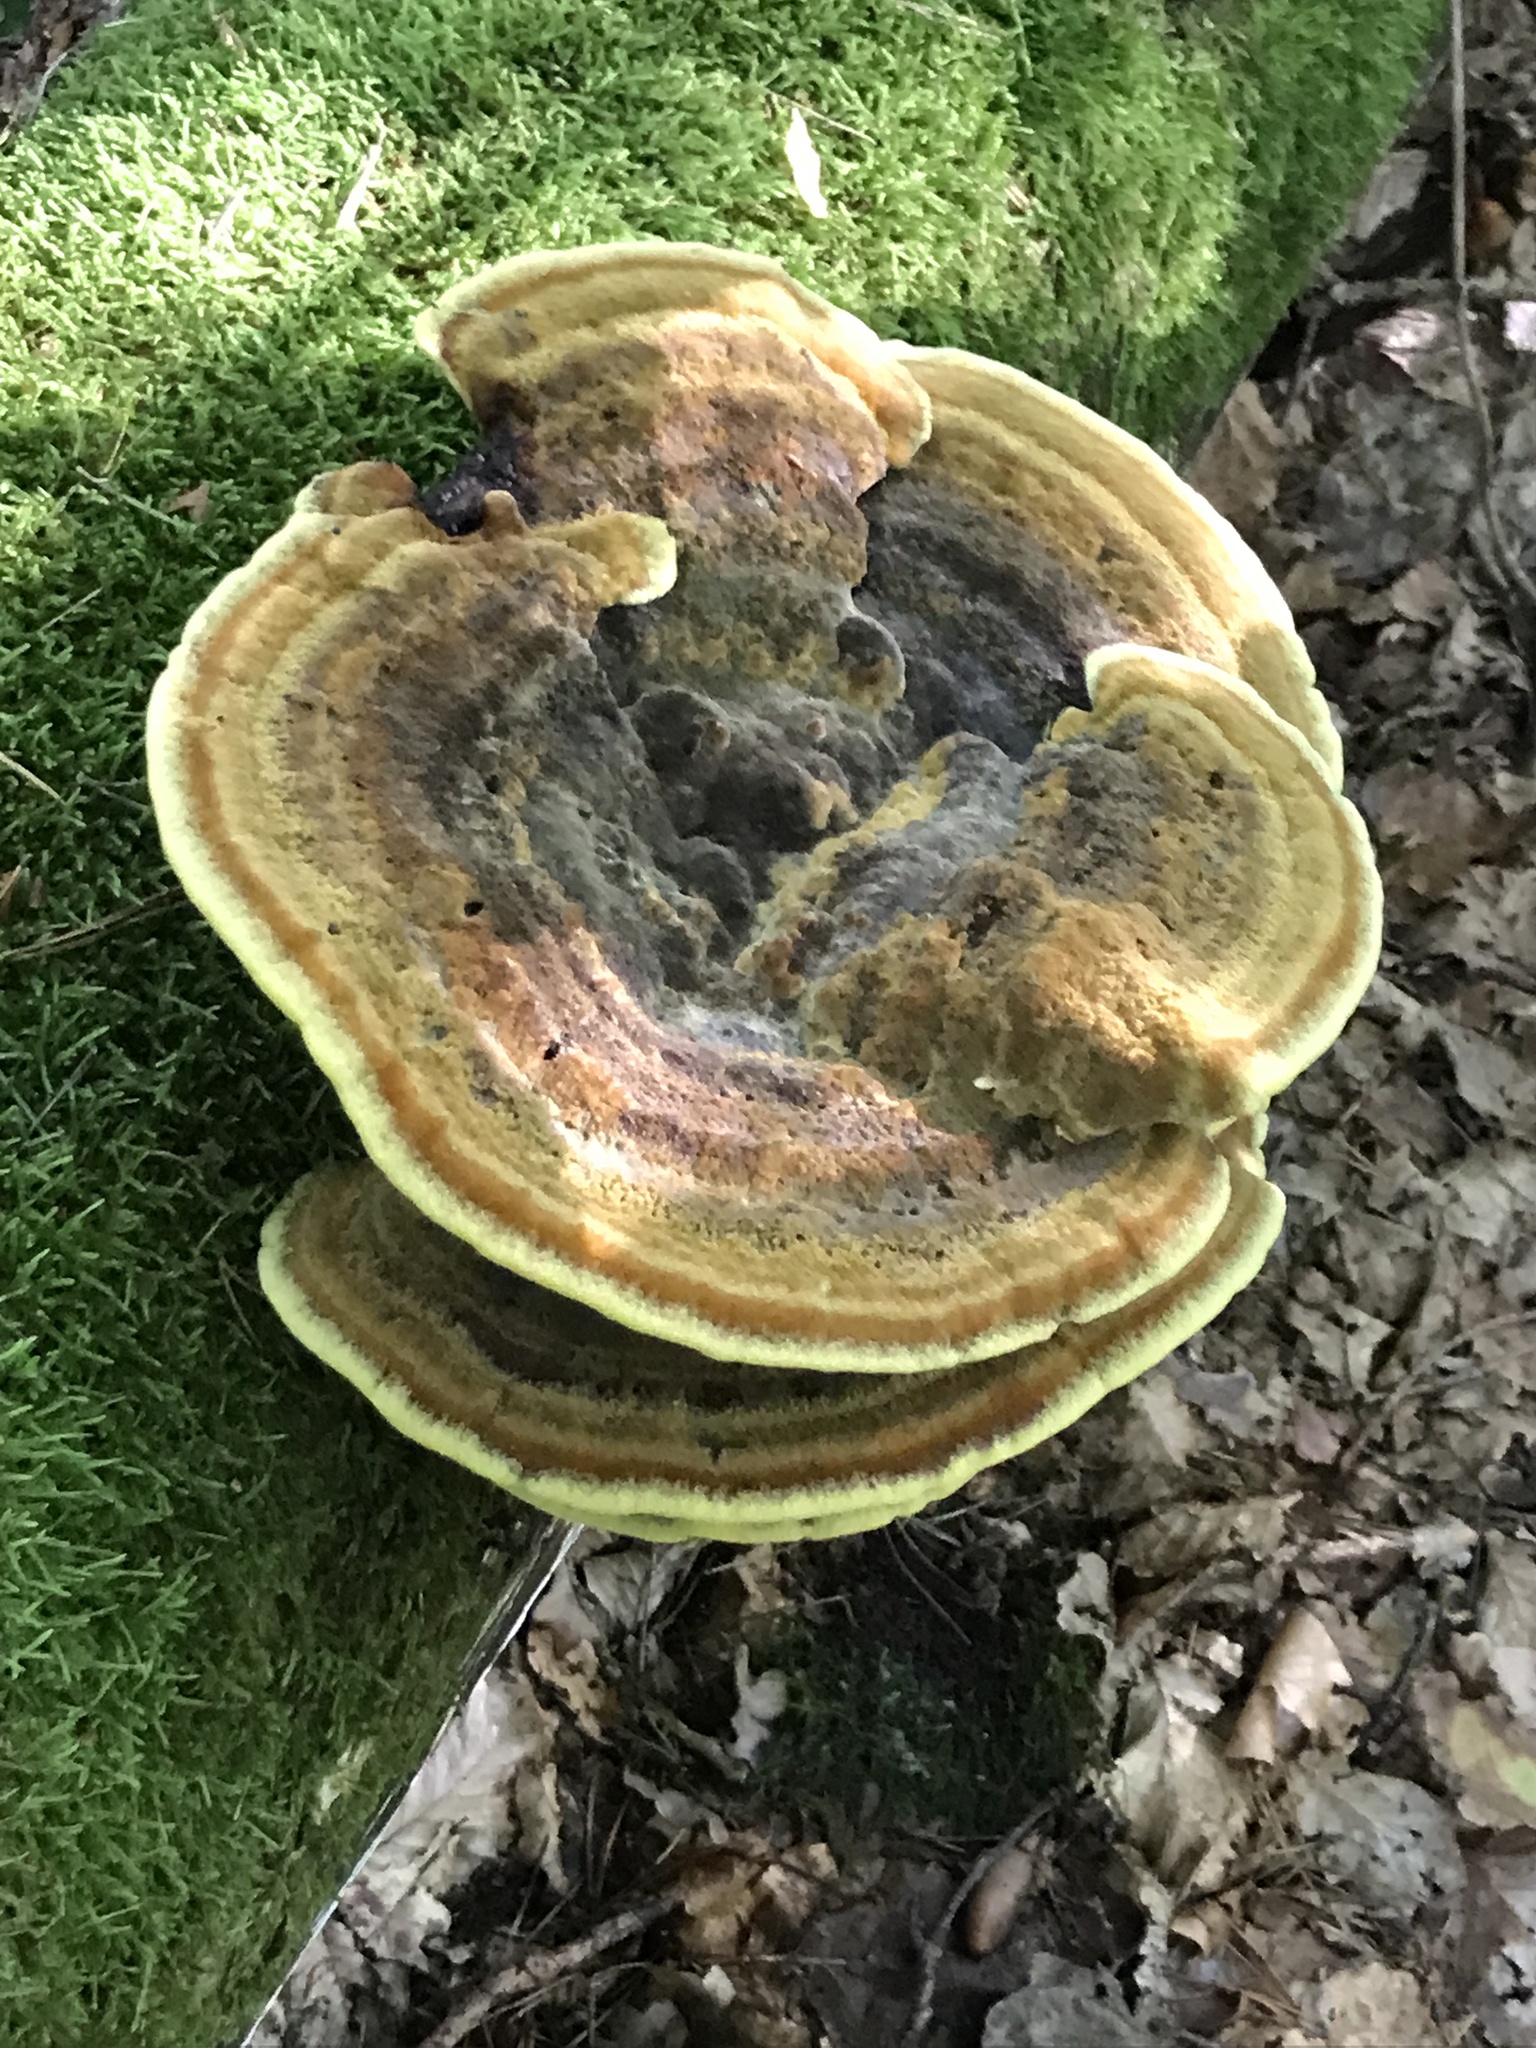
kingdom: Fungi
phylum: Basidiomycota
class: Agaricomycetes
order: Polyporales
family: Laetiporaceae
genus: Phaeolus
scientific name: Phaeolus schweinitzii
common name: Dyer's mazegill
